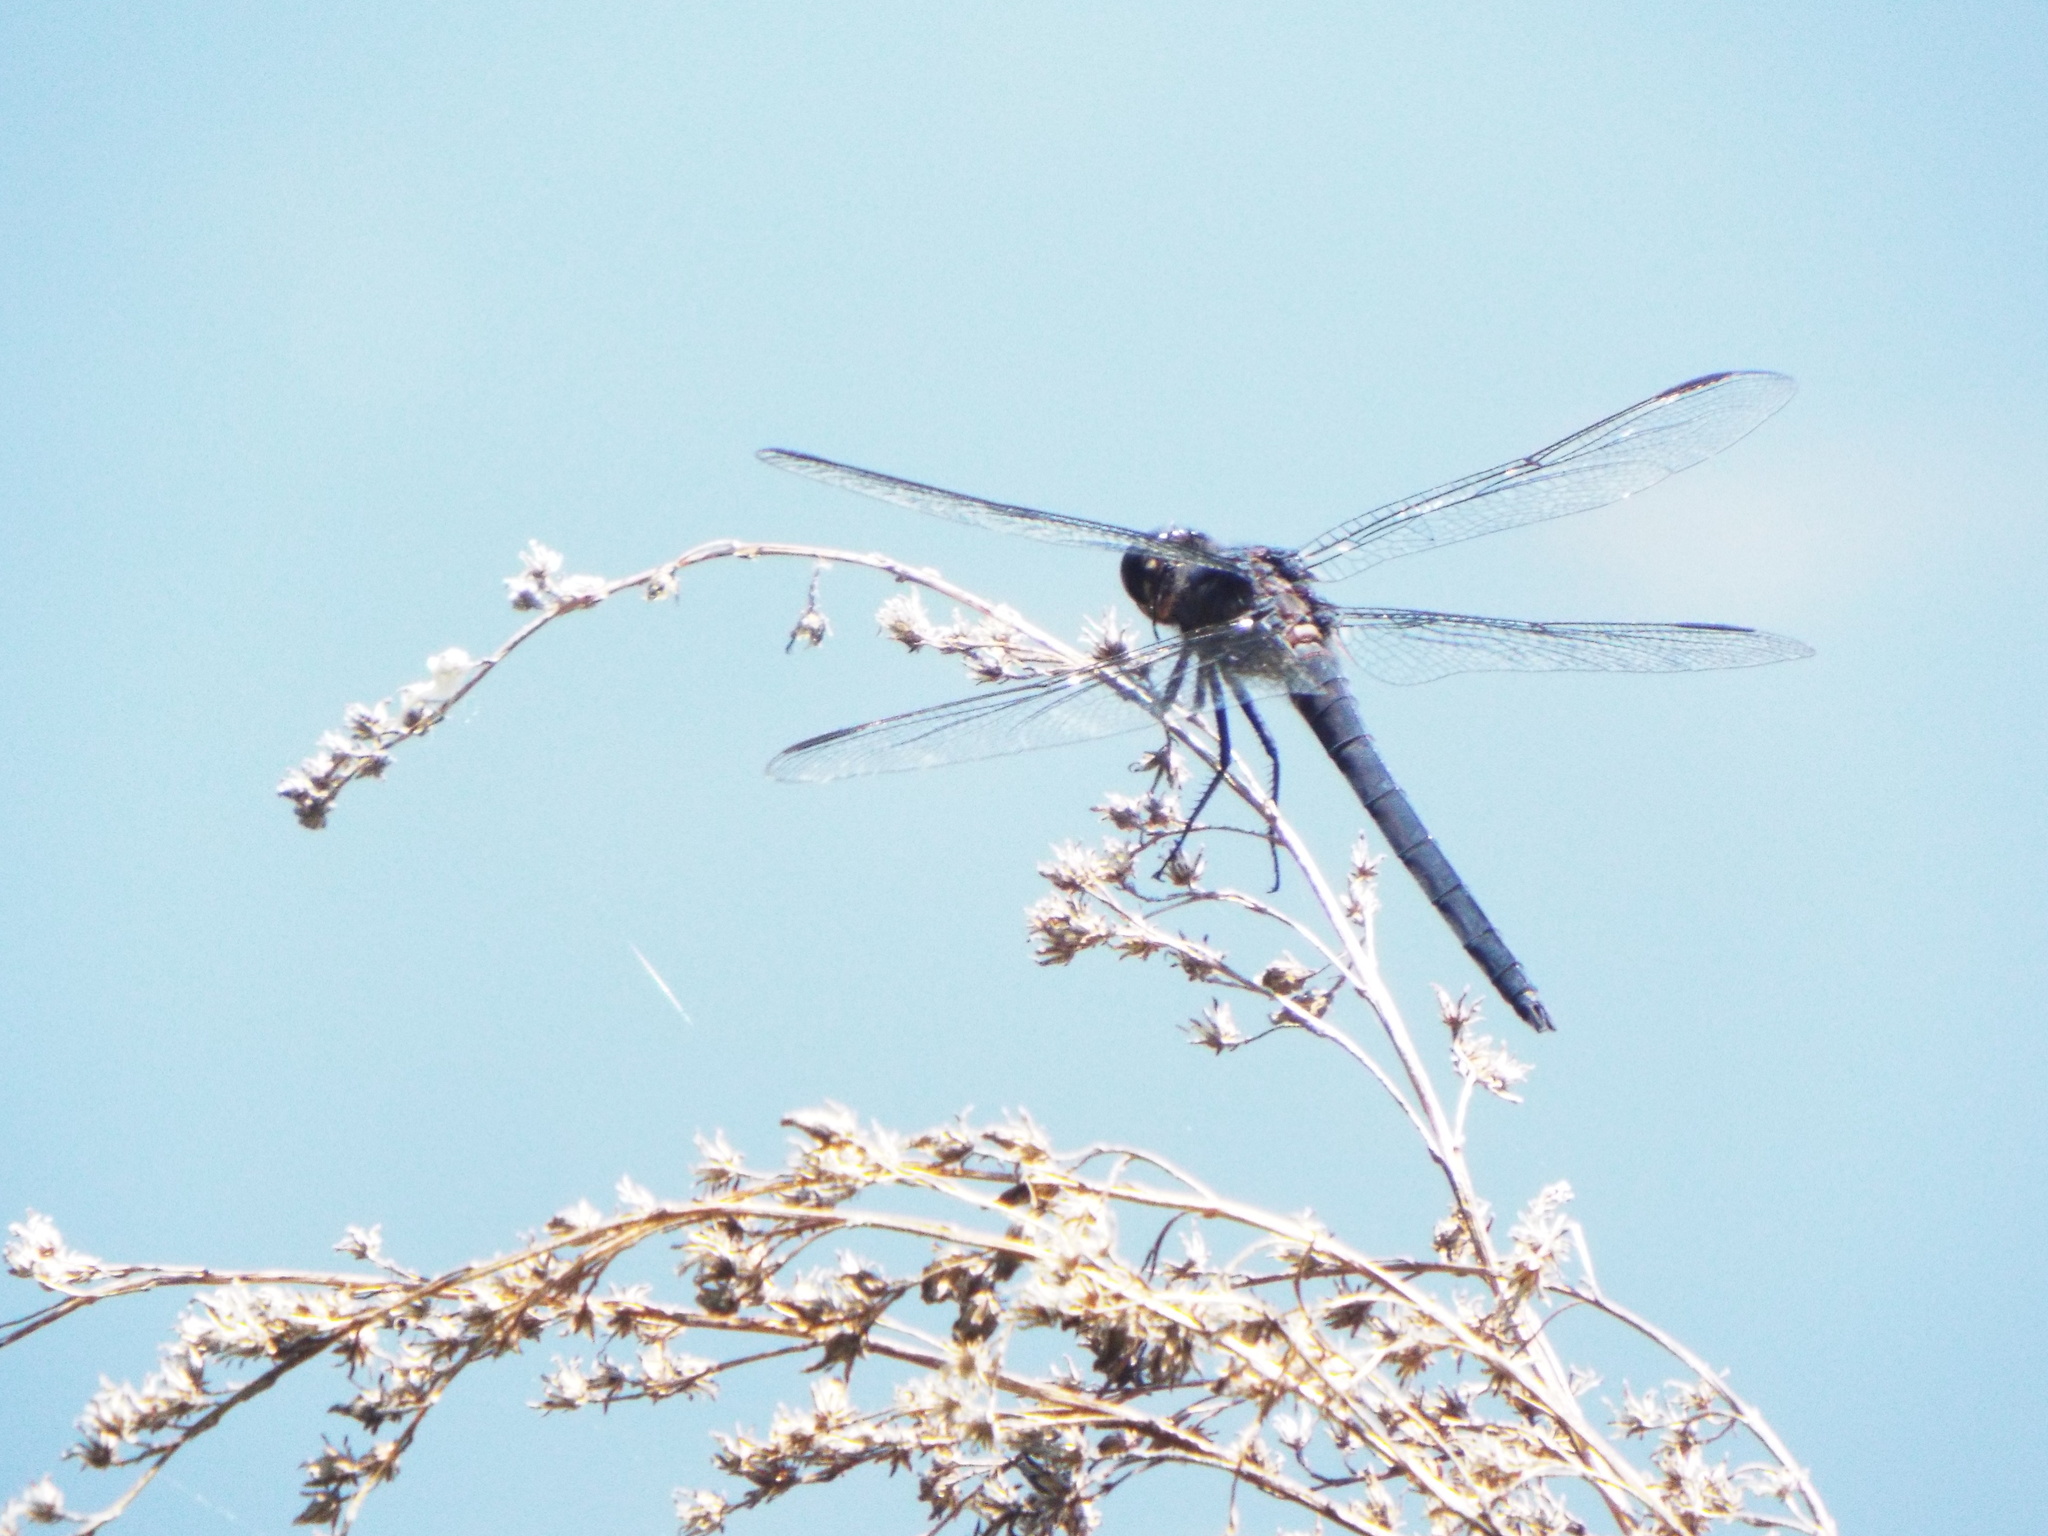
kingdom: Animalia
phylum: Arthropoda
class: Insecta
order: Odonata
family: Libellulidae
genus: Libellula
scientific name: Libellula incesta
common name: Slaty skimmer
